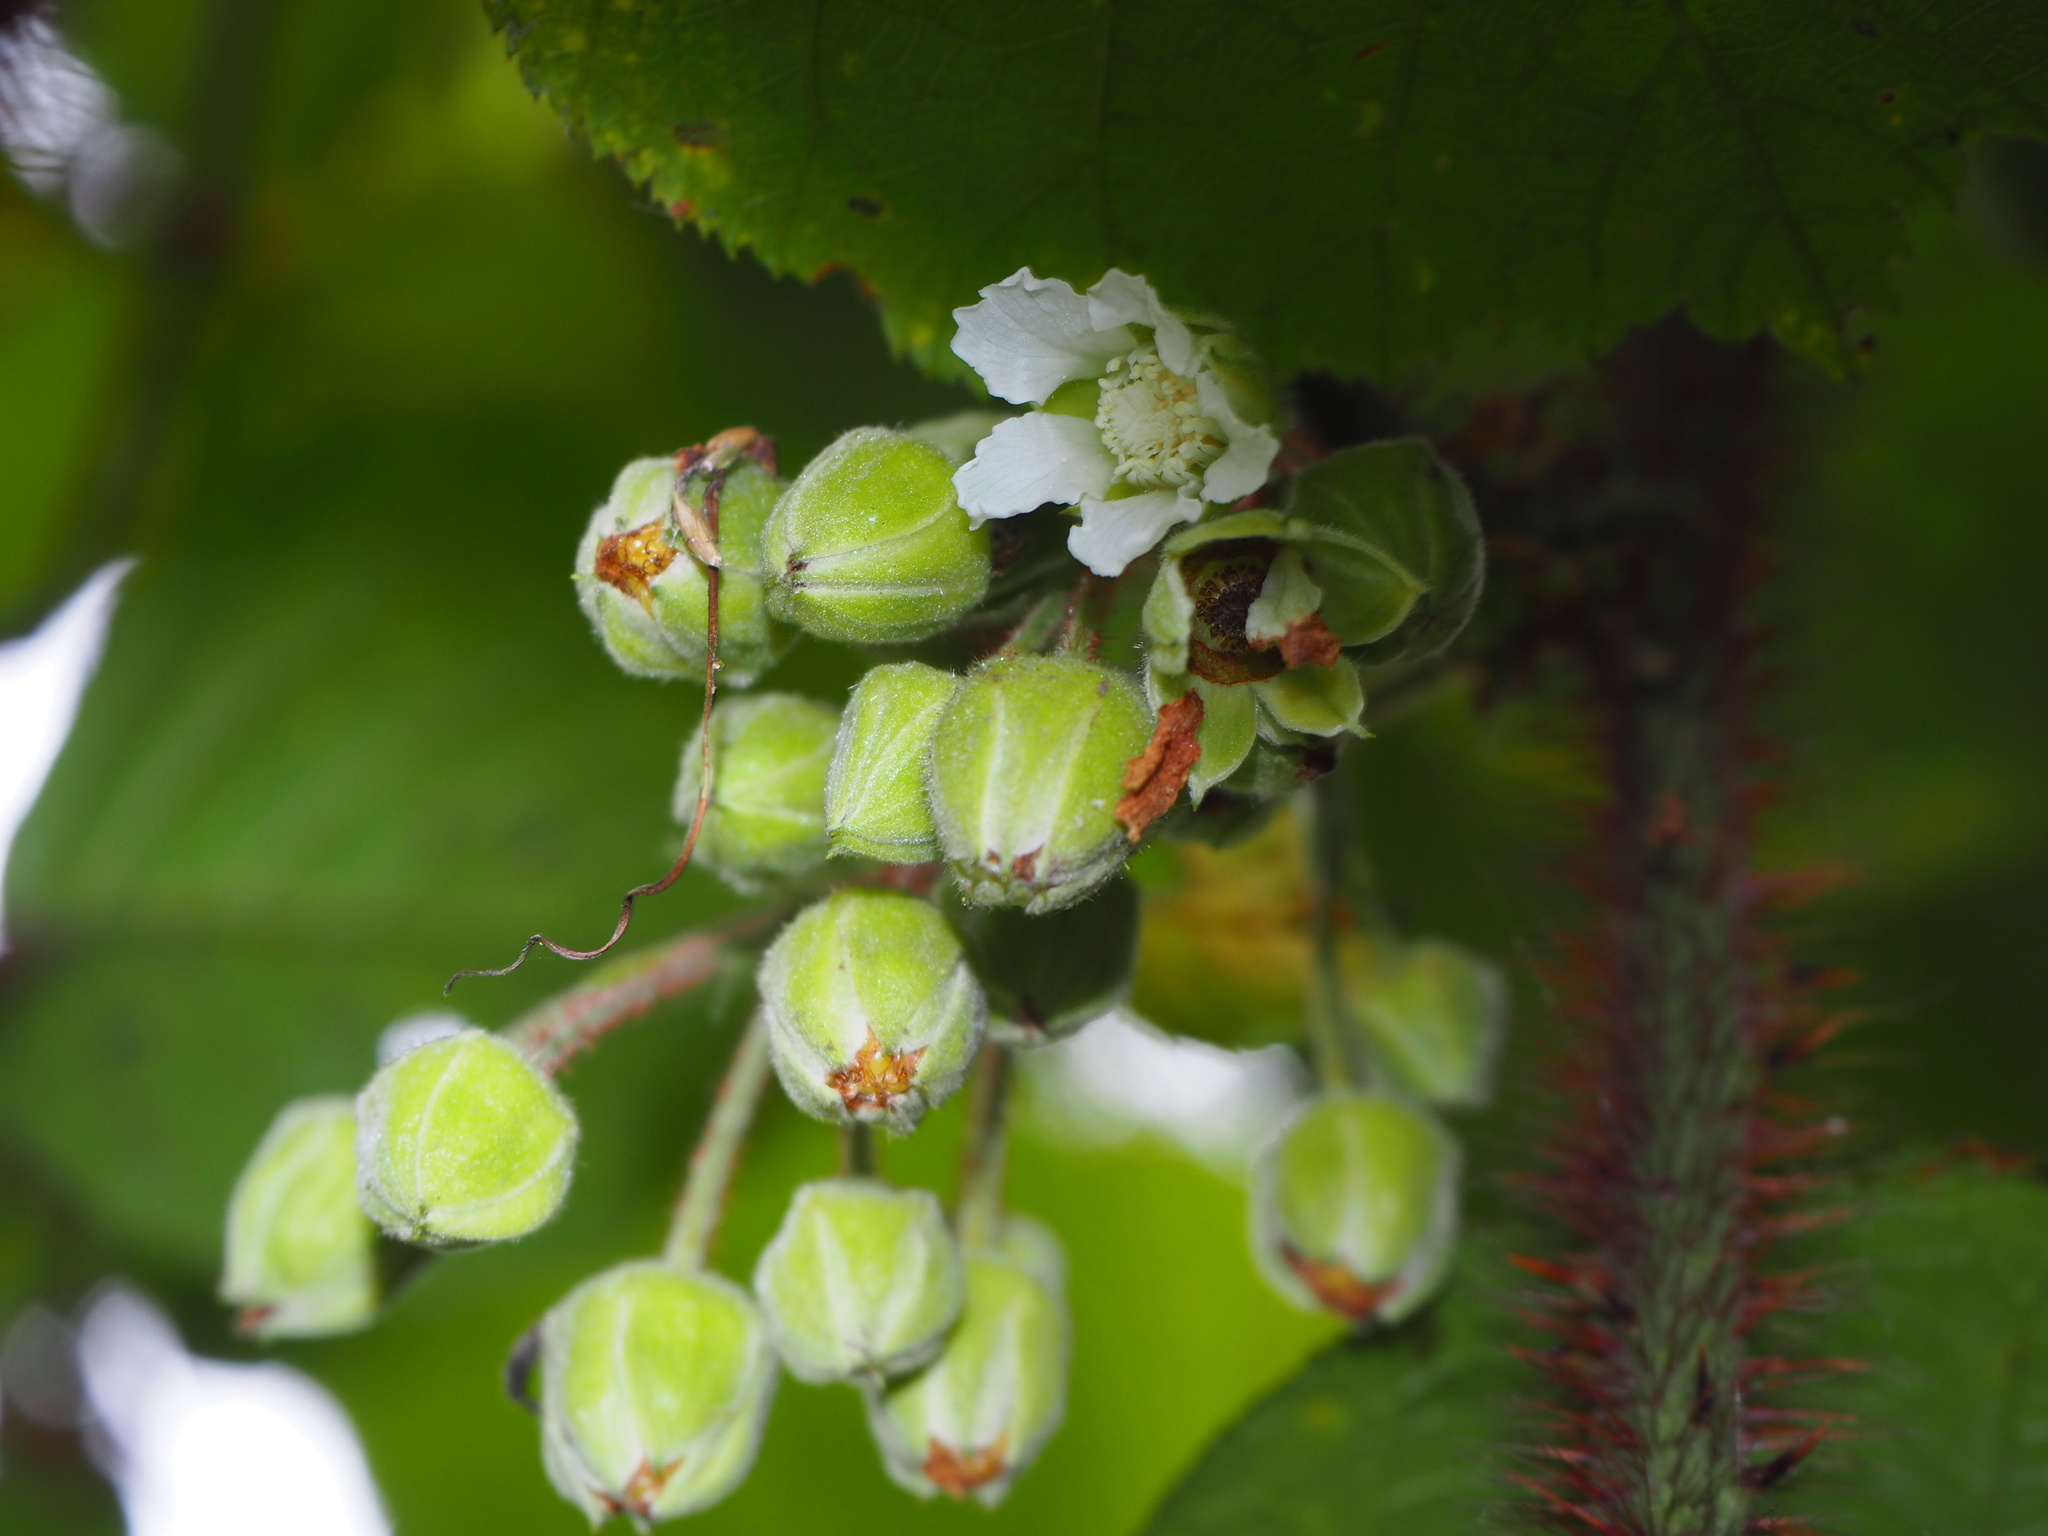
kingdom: Plantae
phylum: Tracheophyta
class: Magnoliopsida
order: Rosales
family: Rosaceae
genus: Rubus
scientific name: Rubus ellipticus
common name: Cheeseberry
